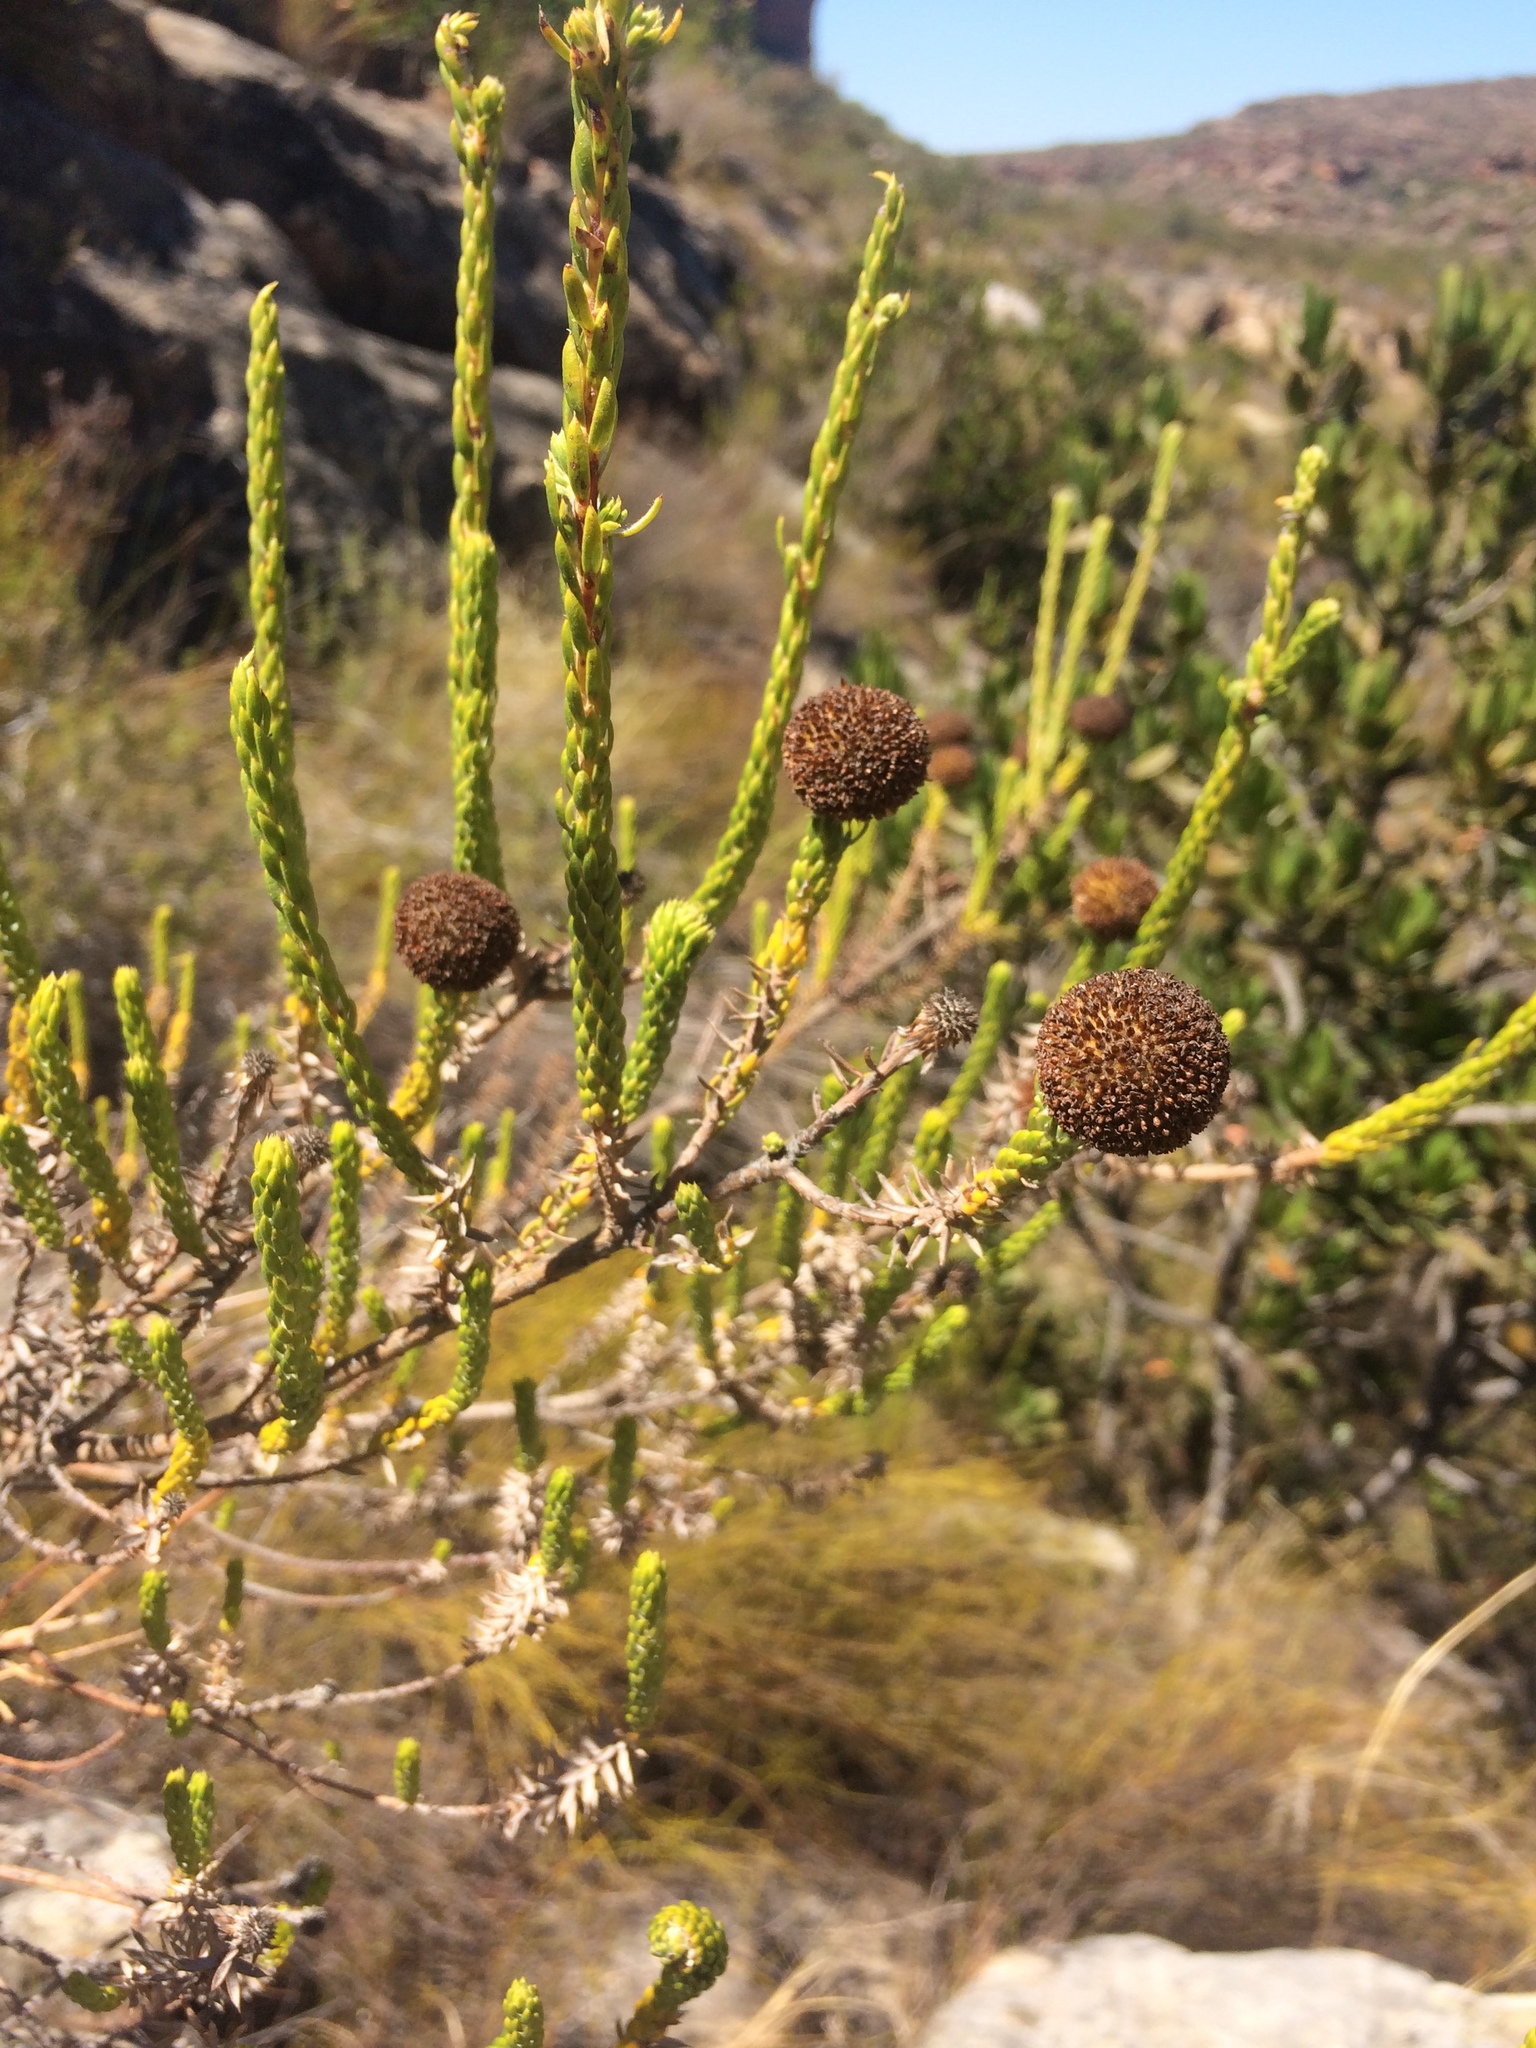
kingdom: Plantae
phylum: Tracheophyta
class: Magnoliopsida
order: Asterales
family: Asteraceae
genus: Stoebe
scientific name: Stoebe aethiopica
